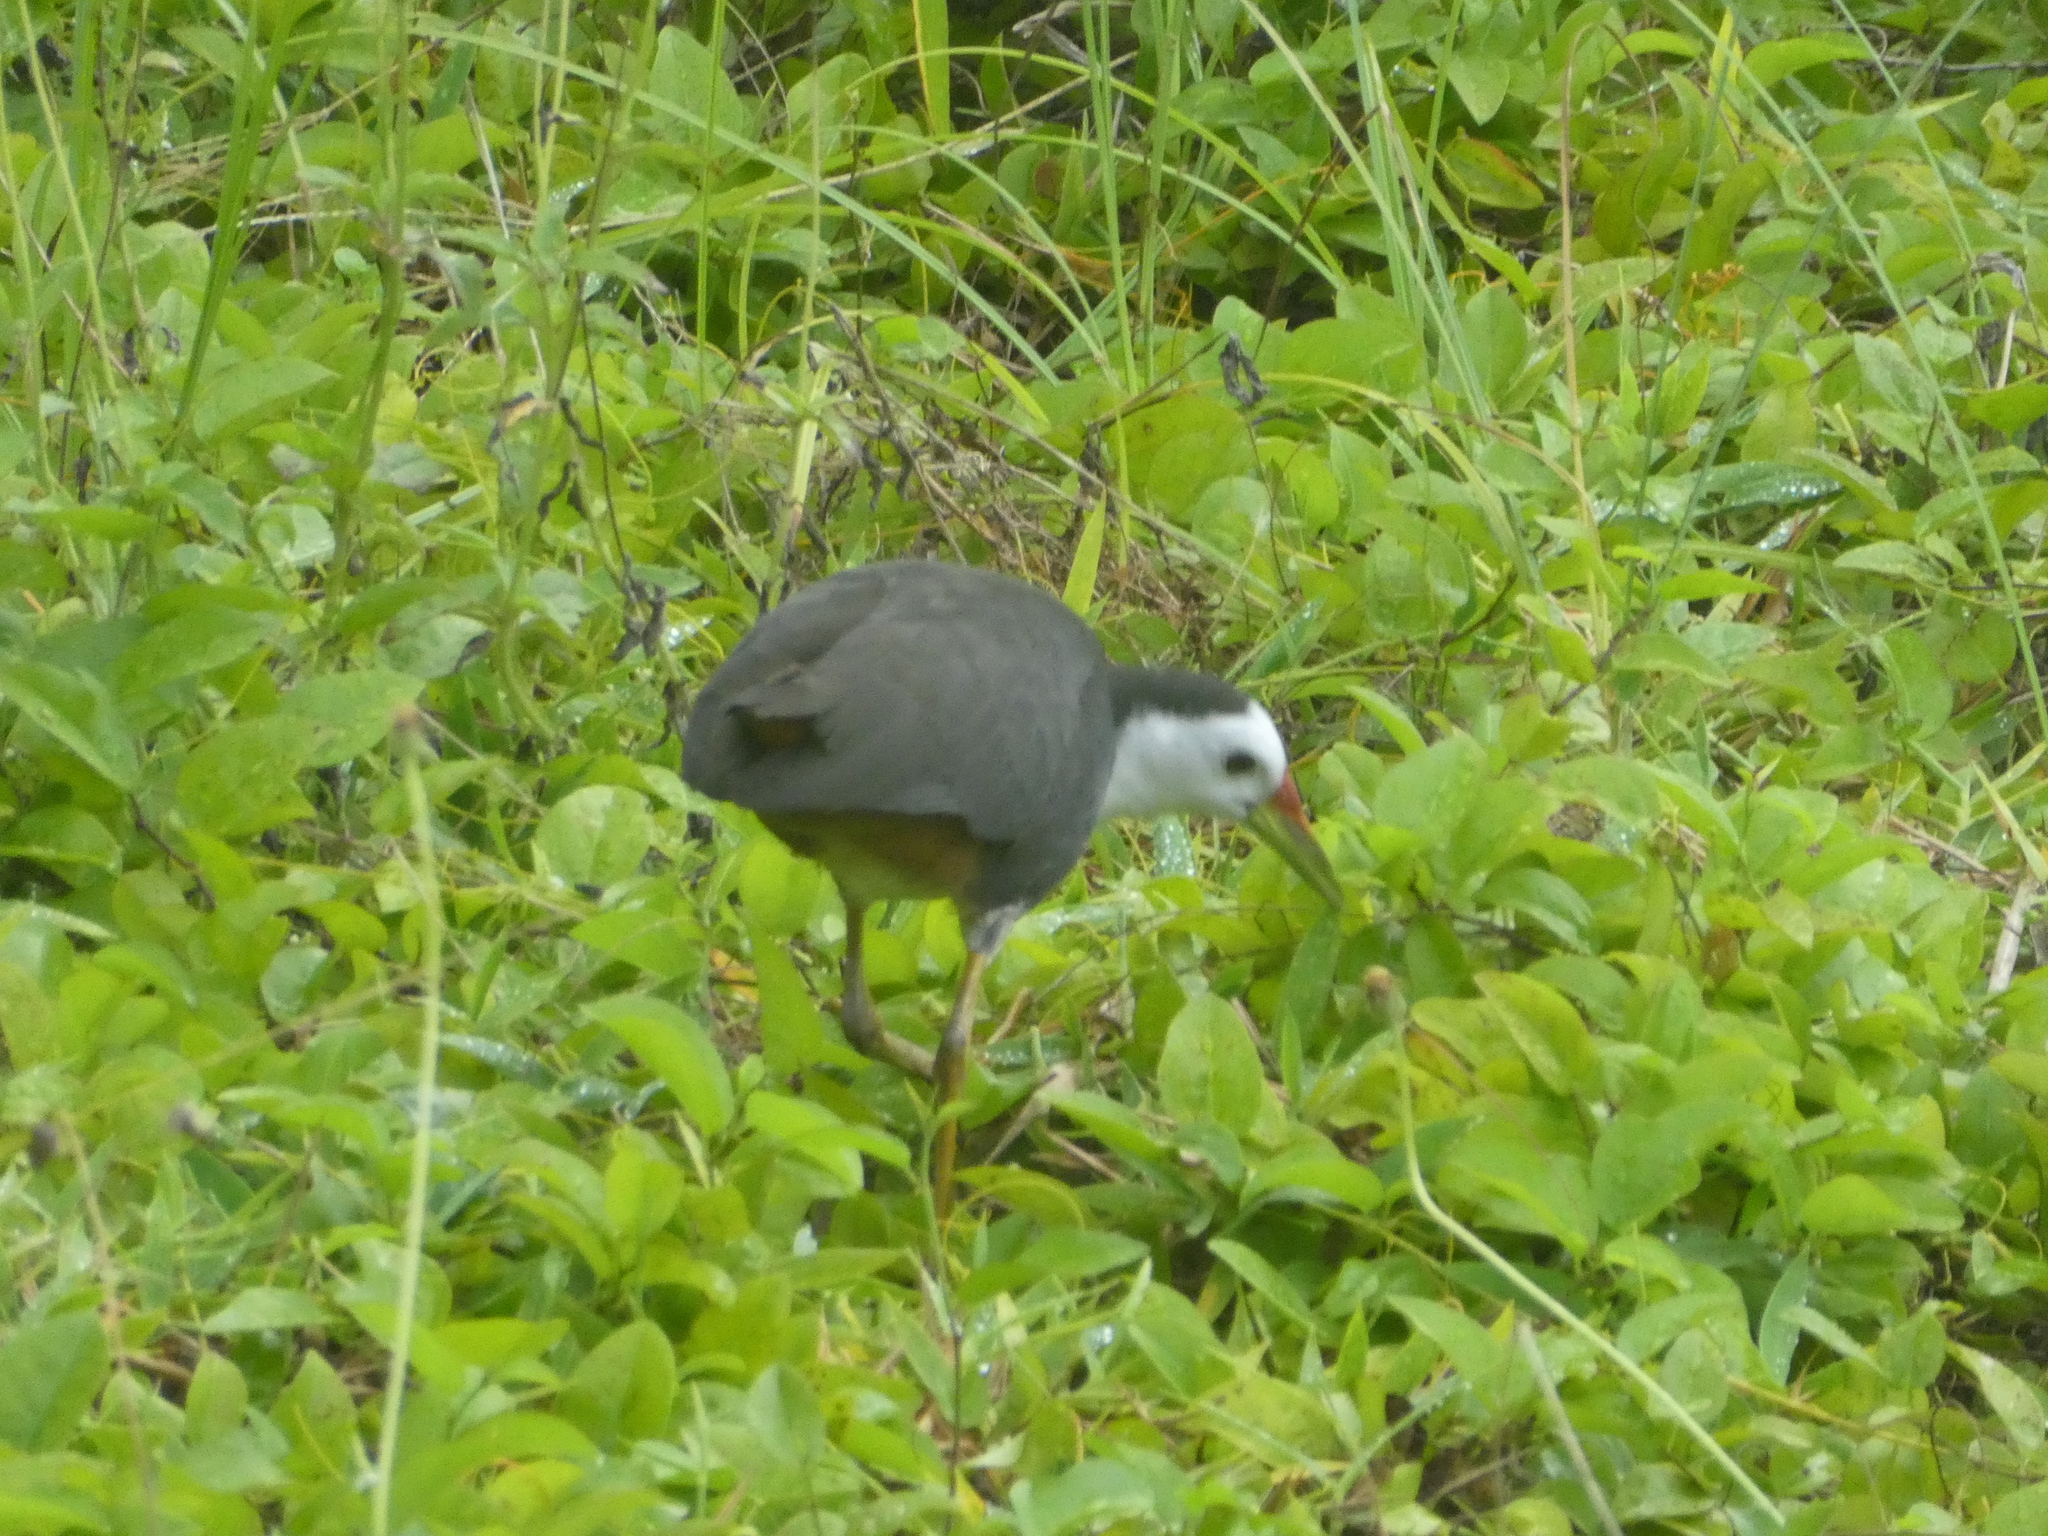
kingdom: Animalia
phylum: Chordata
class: Aves
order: Gruiformes
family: Rallidae
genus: Amaurornis
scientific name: Amaurornis phoenicurus
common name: White-breasted waterhen
